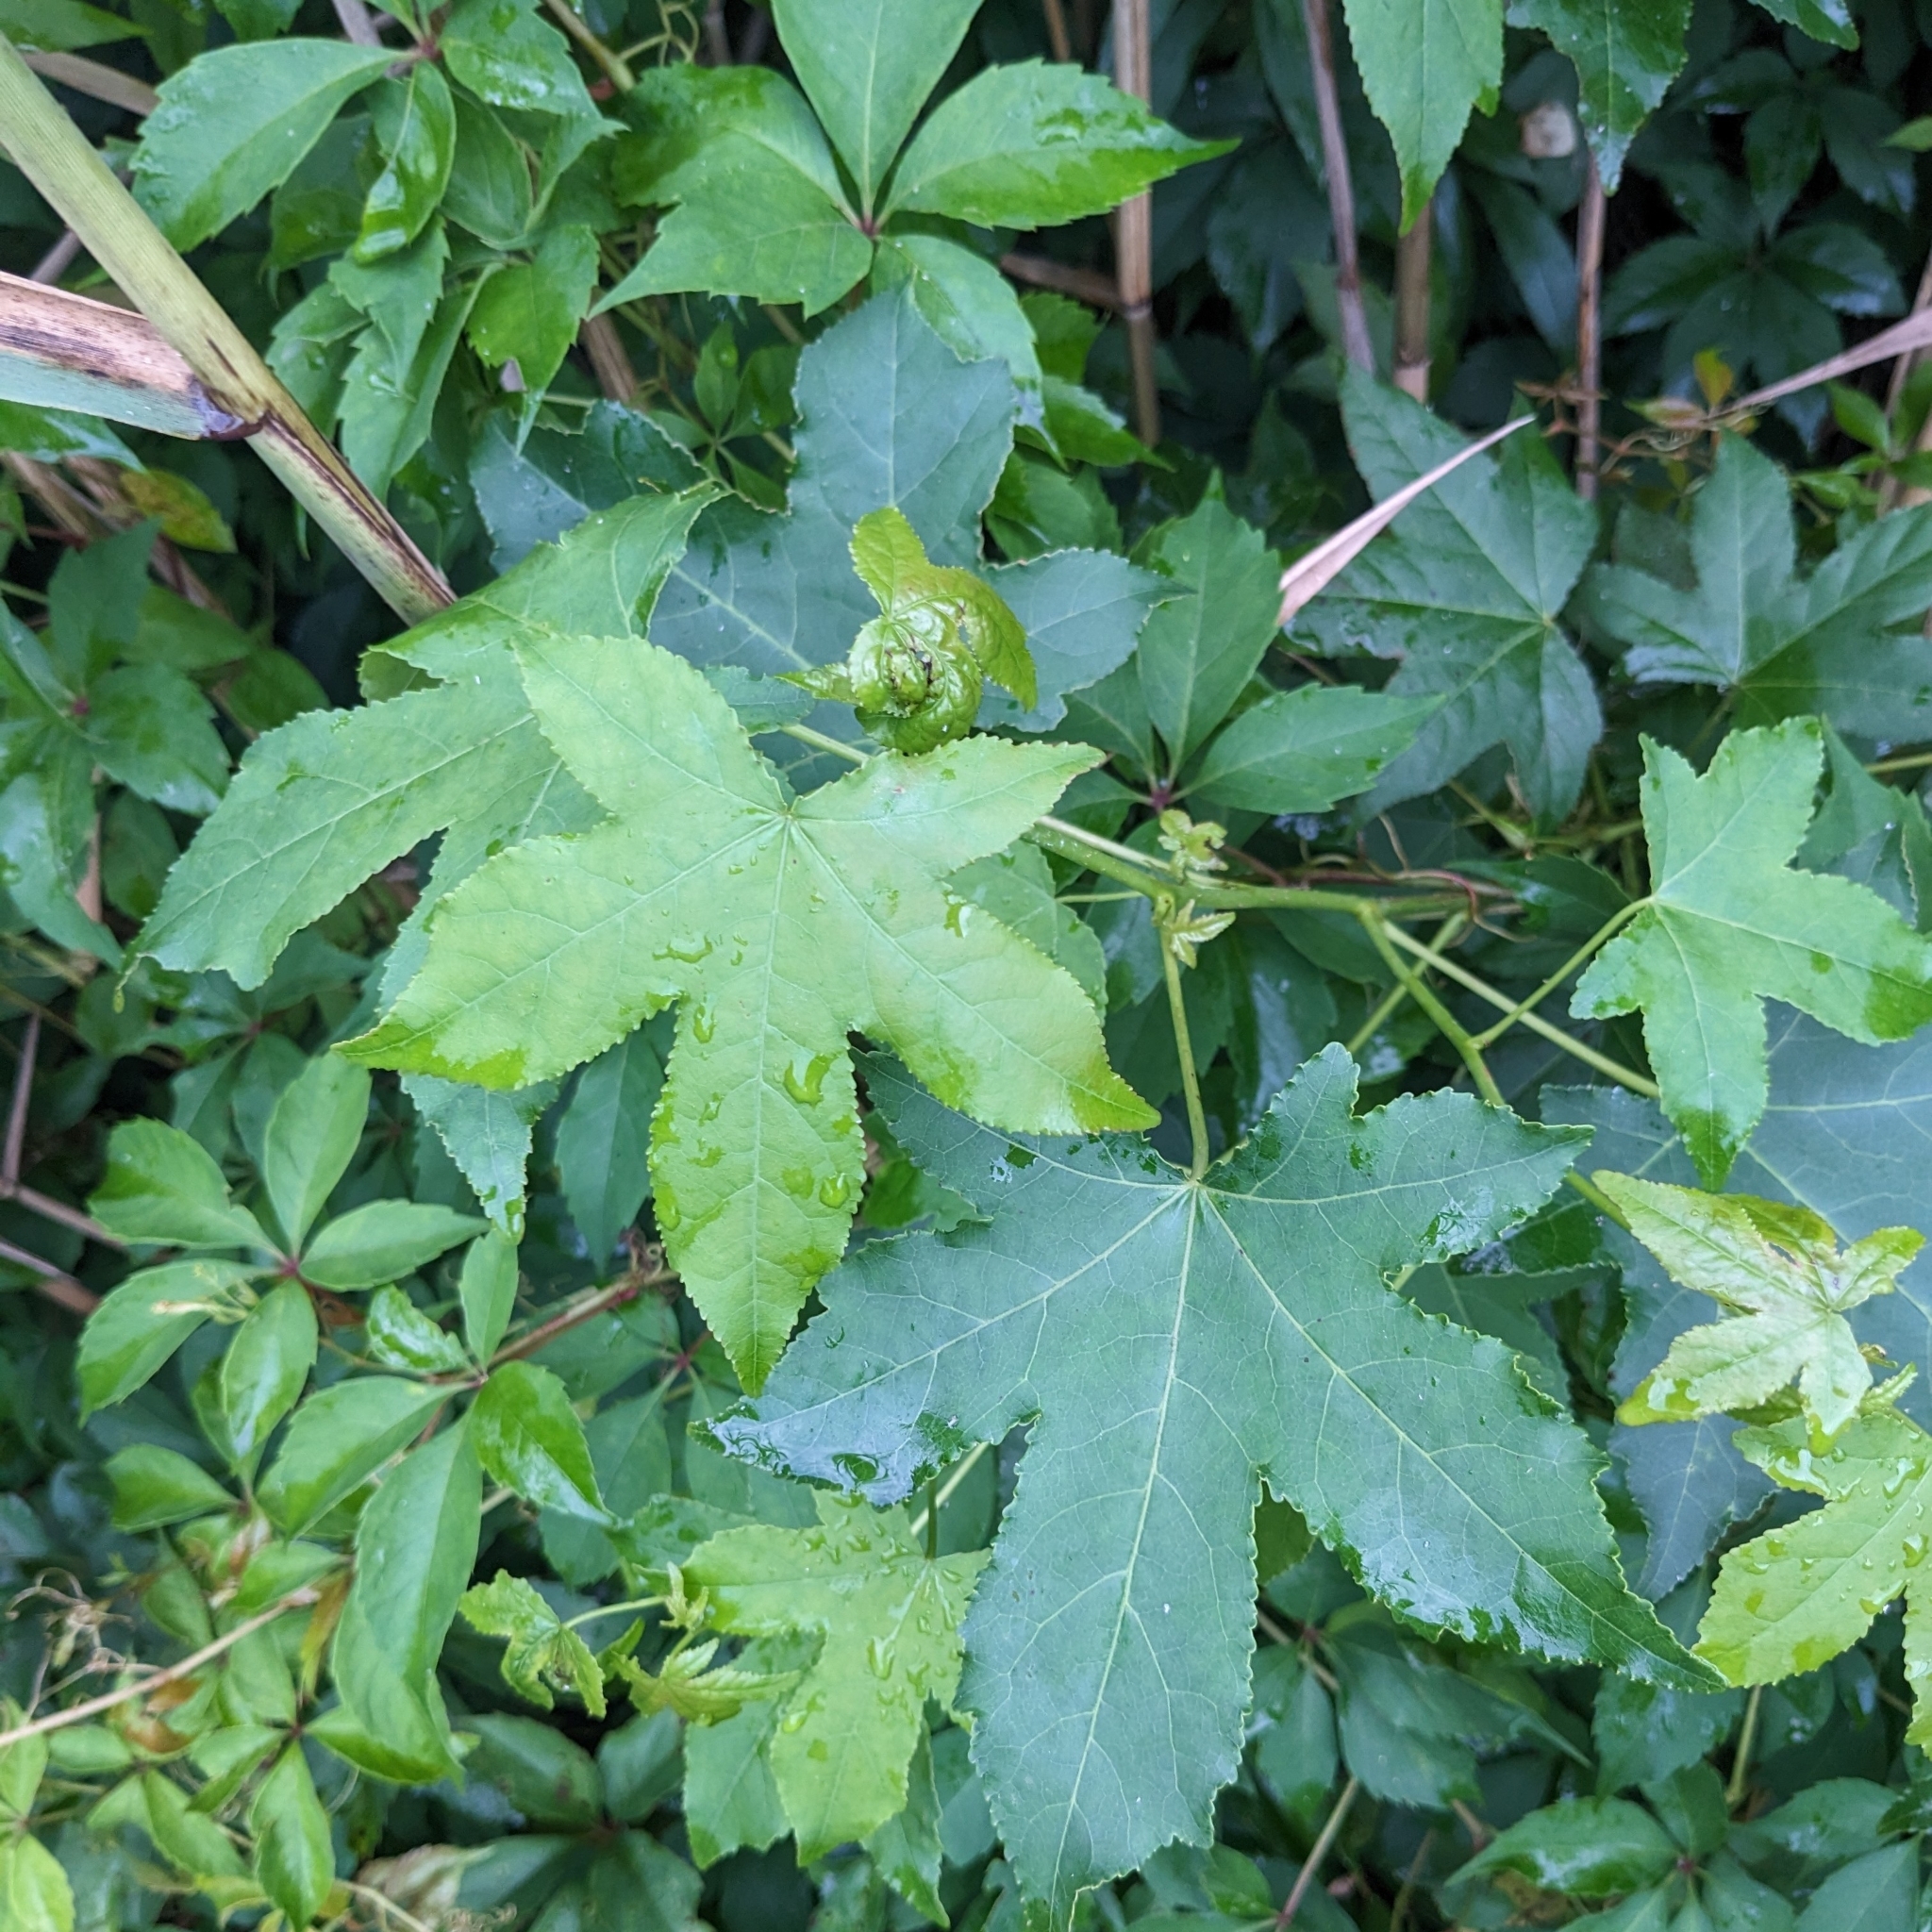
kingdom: Plantae
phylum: Tracheophyta
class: Magnoliopsida
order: Saxifragales
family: Altingiaceae
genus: Liquidambar
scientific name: Liquidambar styraciflua
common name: Sweet gum
